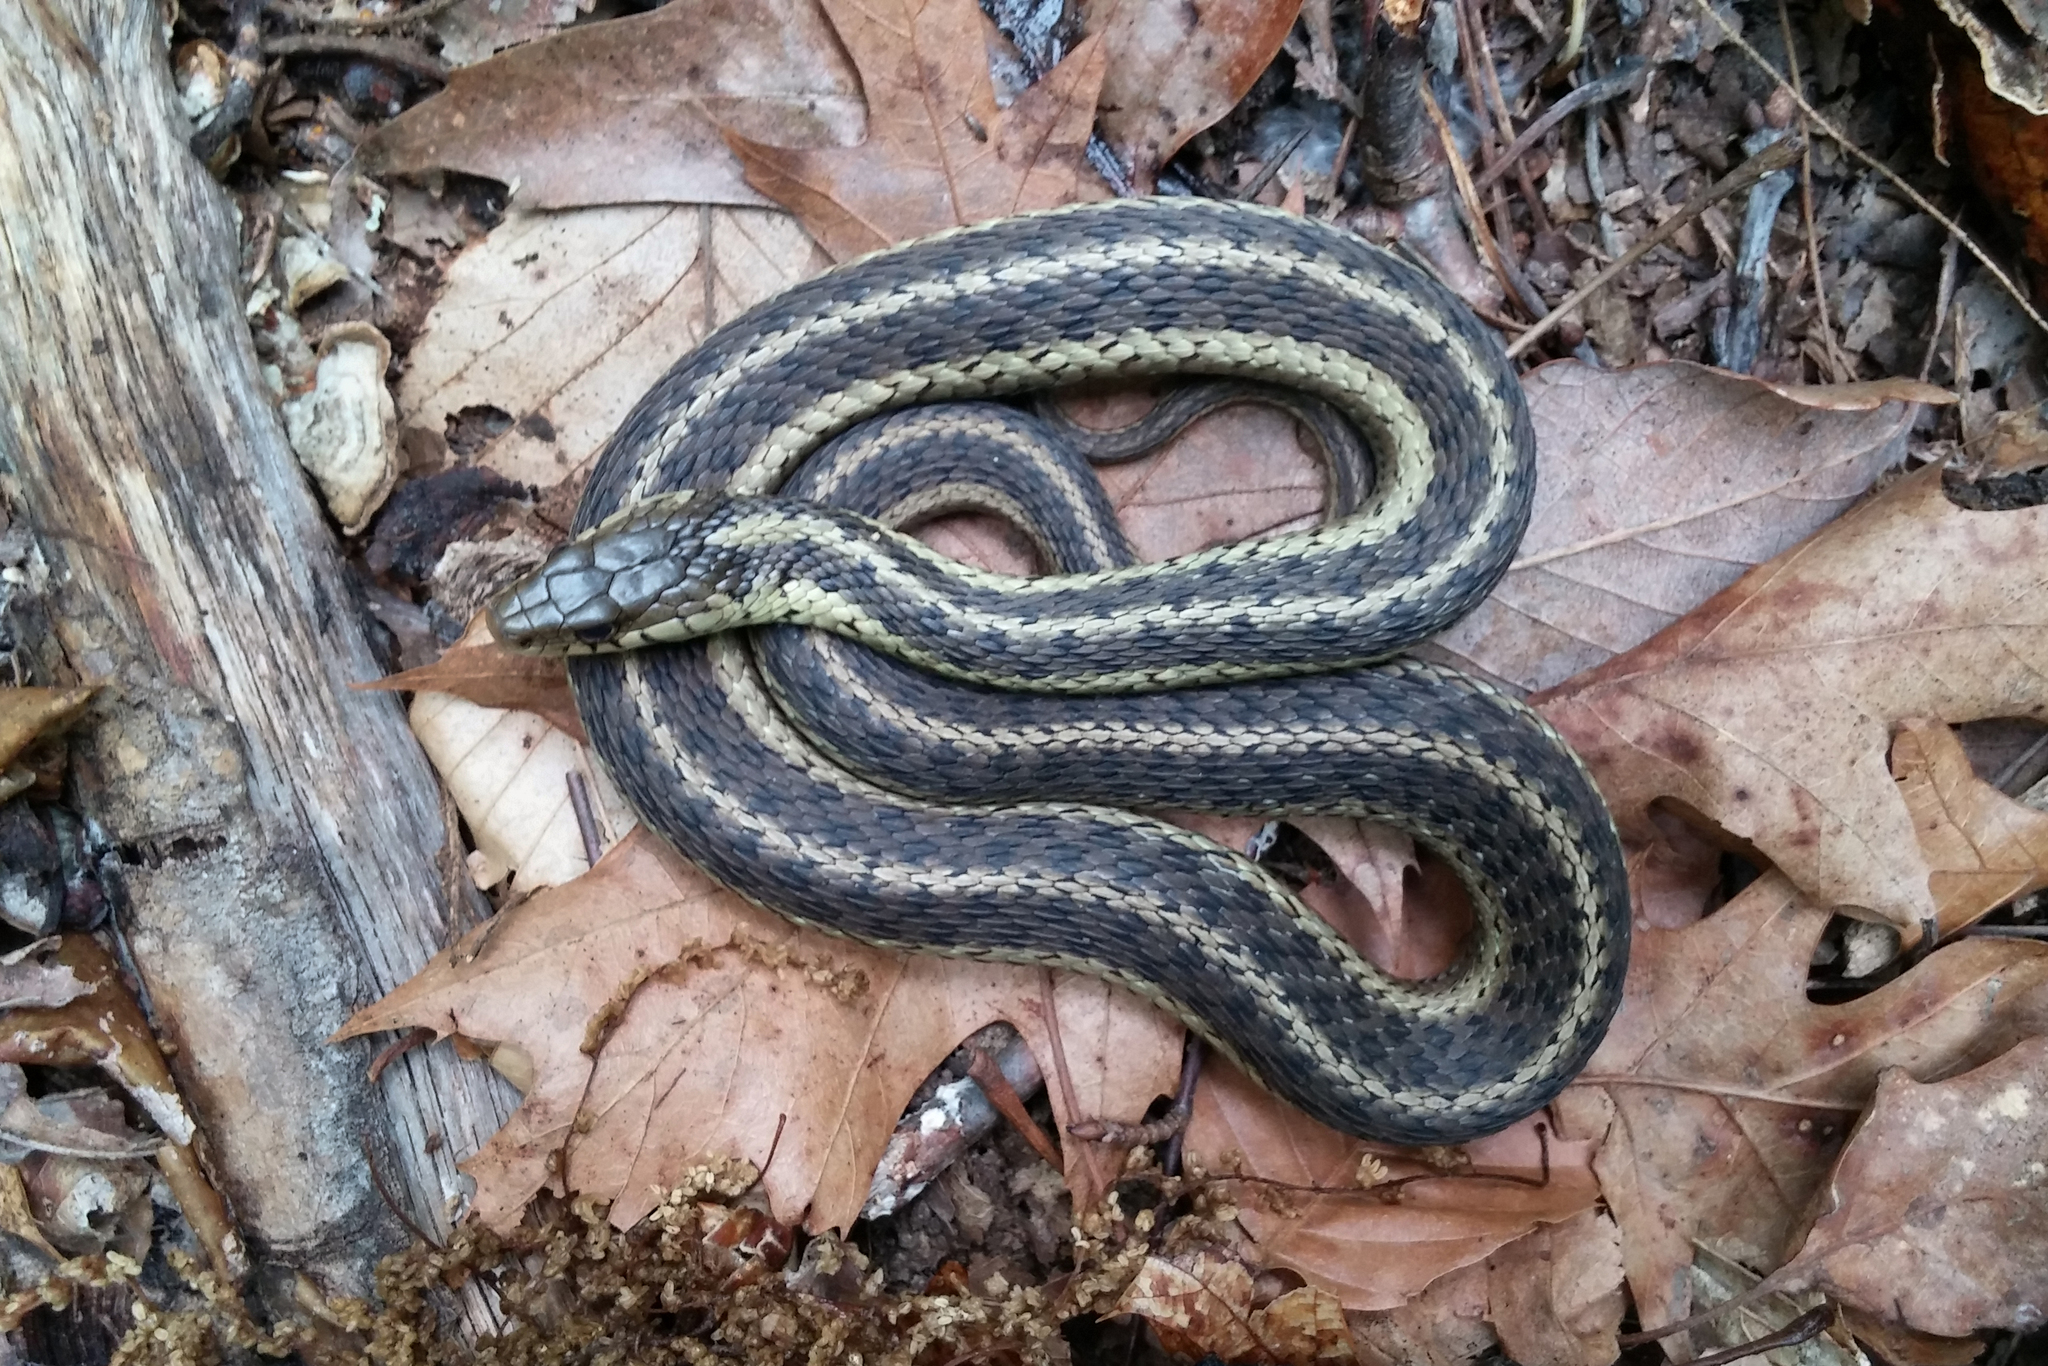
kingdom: Animalia
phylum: Chordata
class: Squamata
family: Colubridae
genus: Thamnophis
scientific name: Thamnophis sirtalis
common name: Common garter snake
